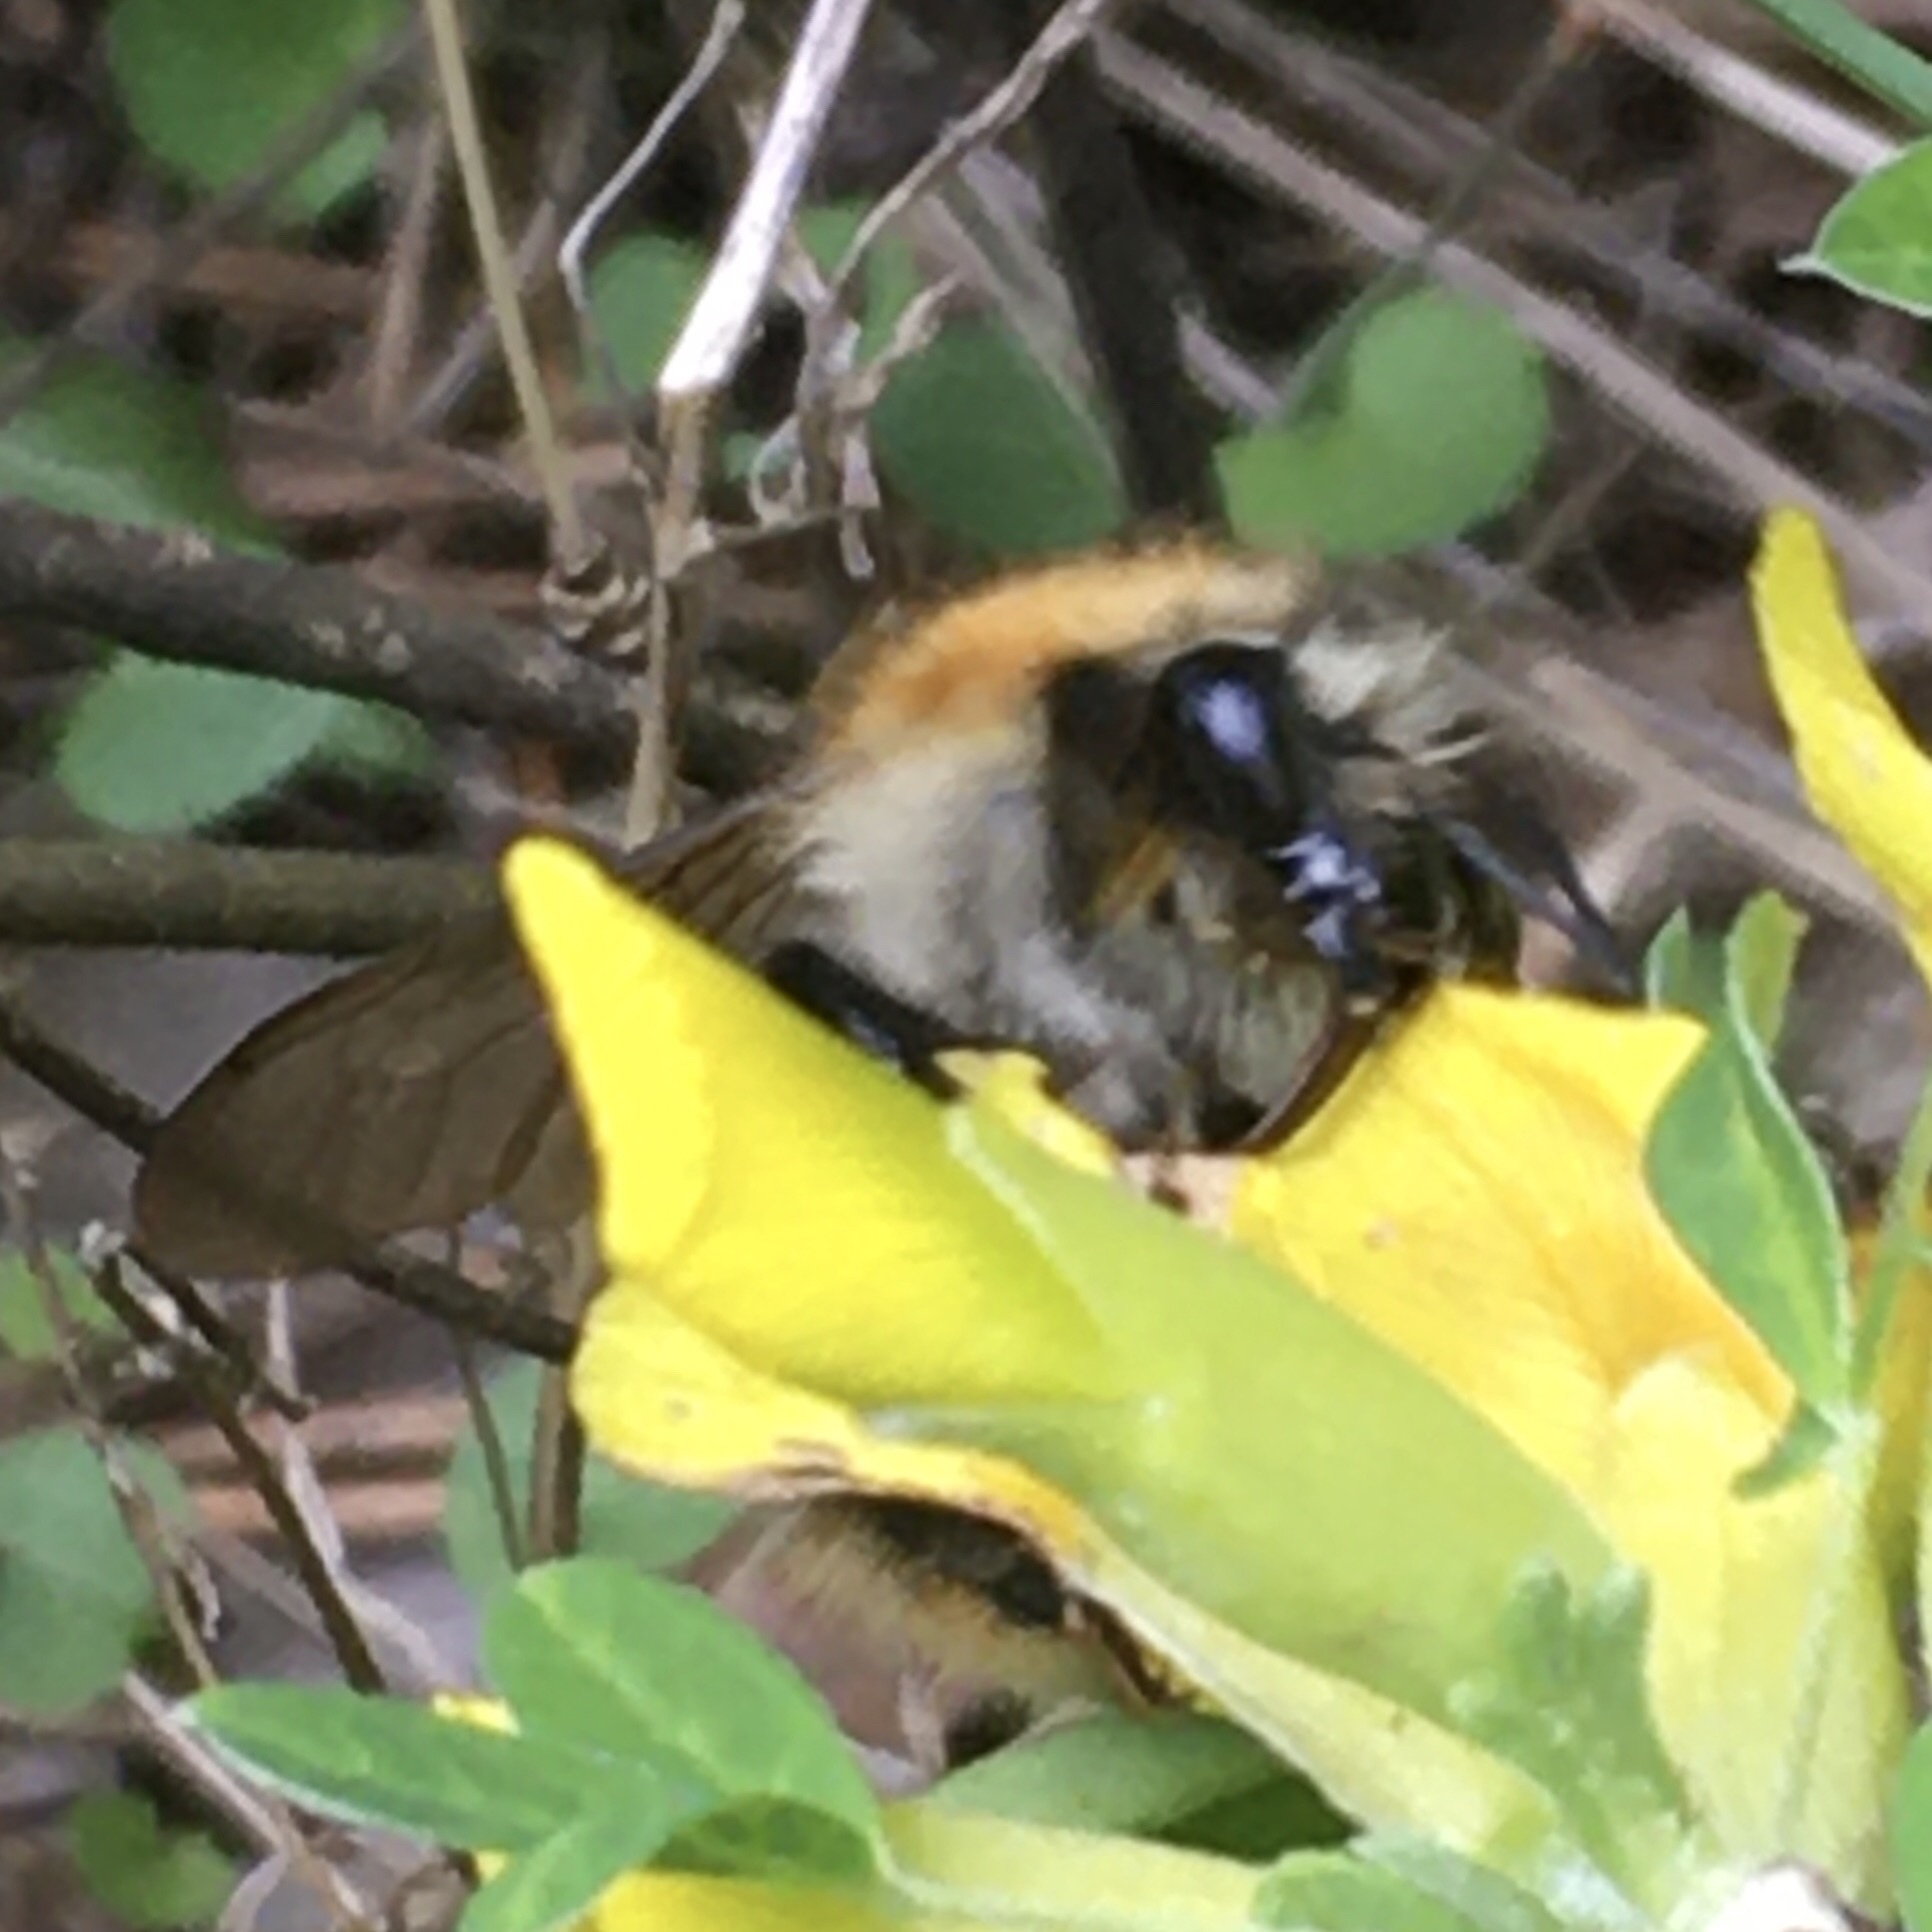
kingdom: Animalia
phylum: Arthropoda
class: Insecta
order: Hymenoptera
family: Apidae
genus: Bombus
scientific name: Bombus pascuorum
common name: Common carder bee
